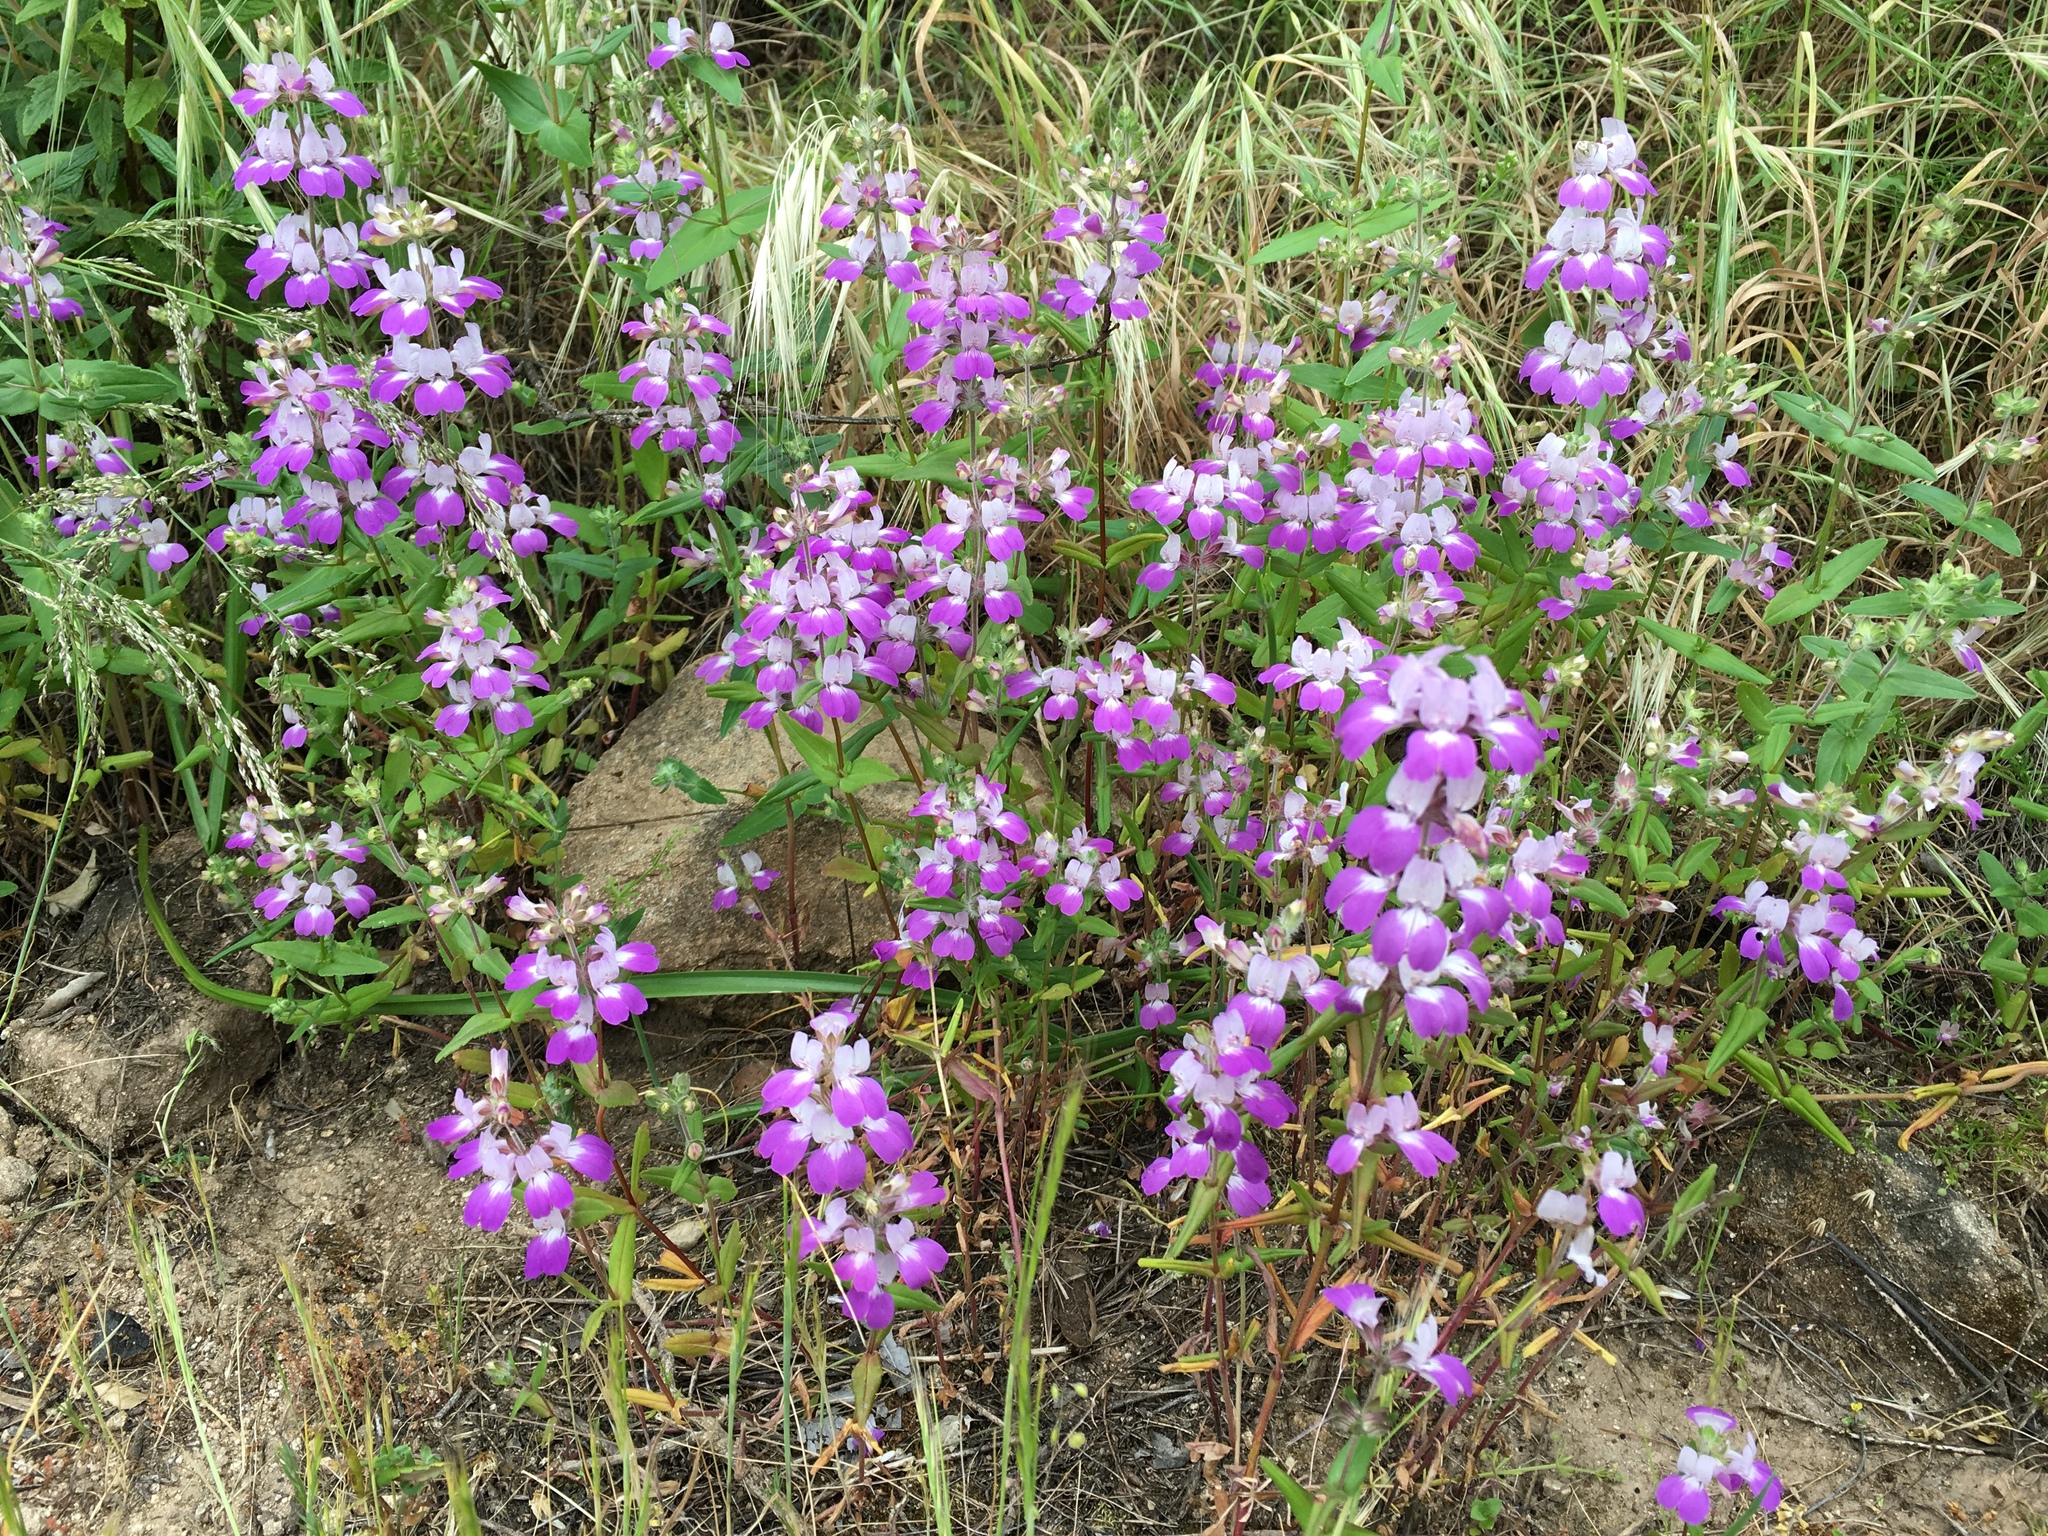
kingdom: Plantae
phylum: Tracheophyta
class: Magnoliopsida
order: Lamiales
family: Plantaginaceae
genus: Collinsia
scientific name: Collinsia heterophylla
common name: Chinese-houses
